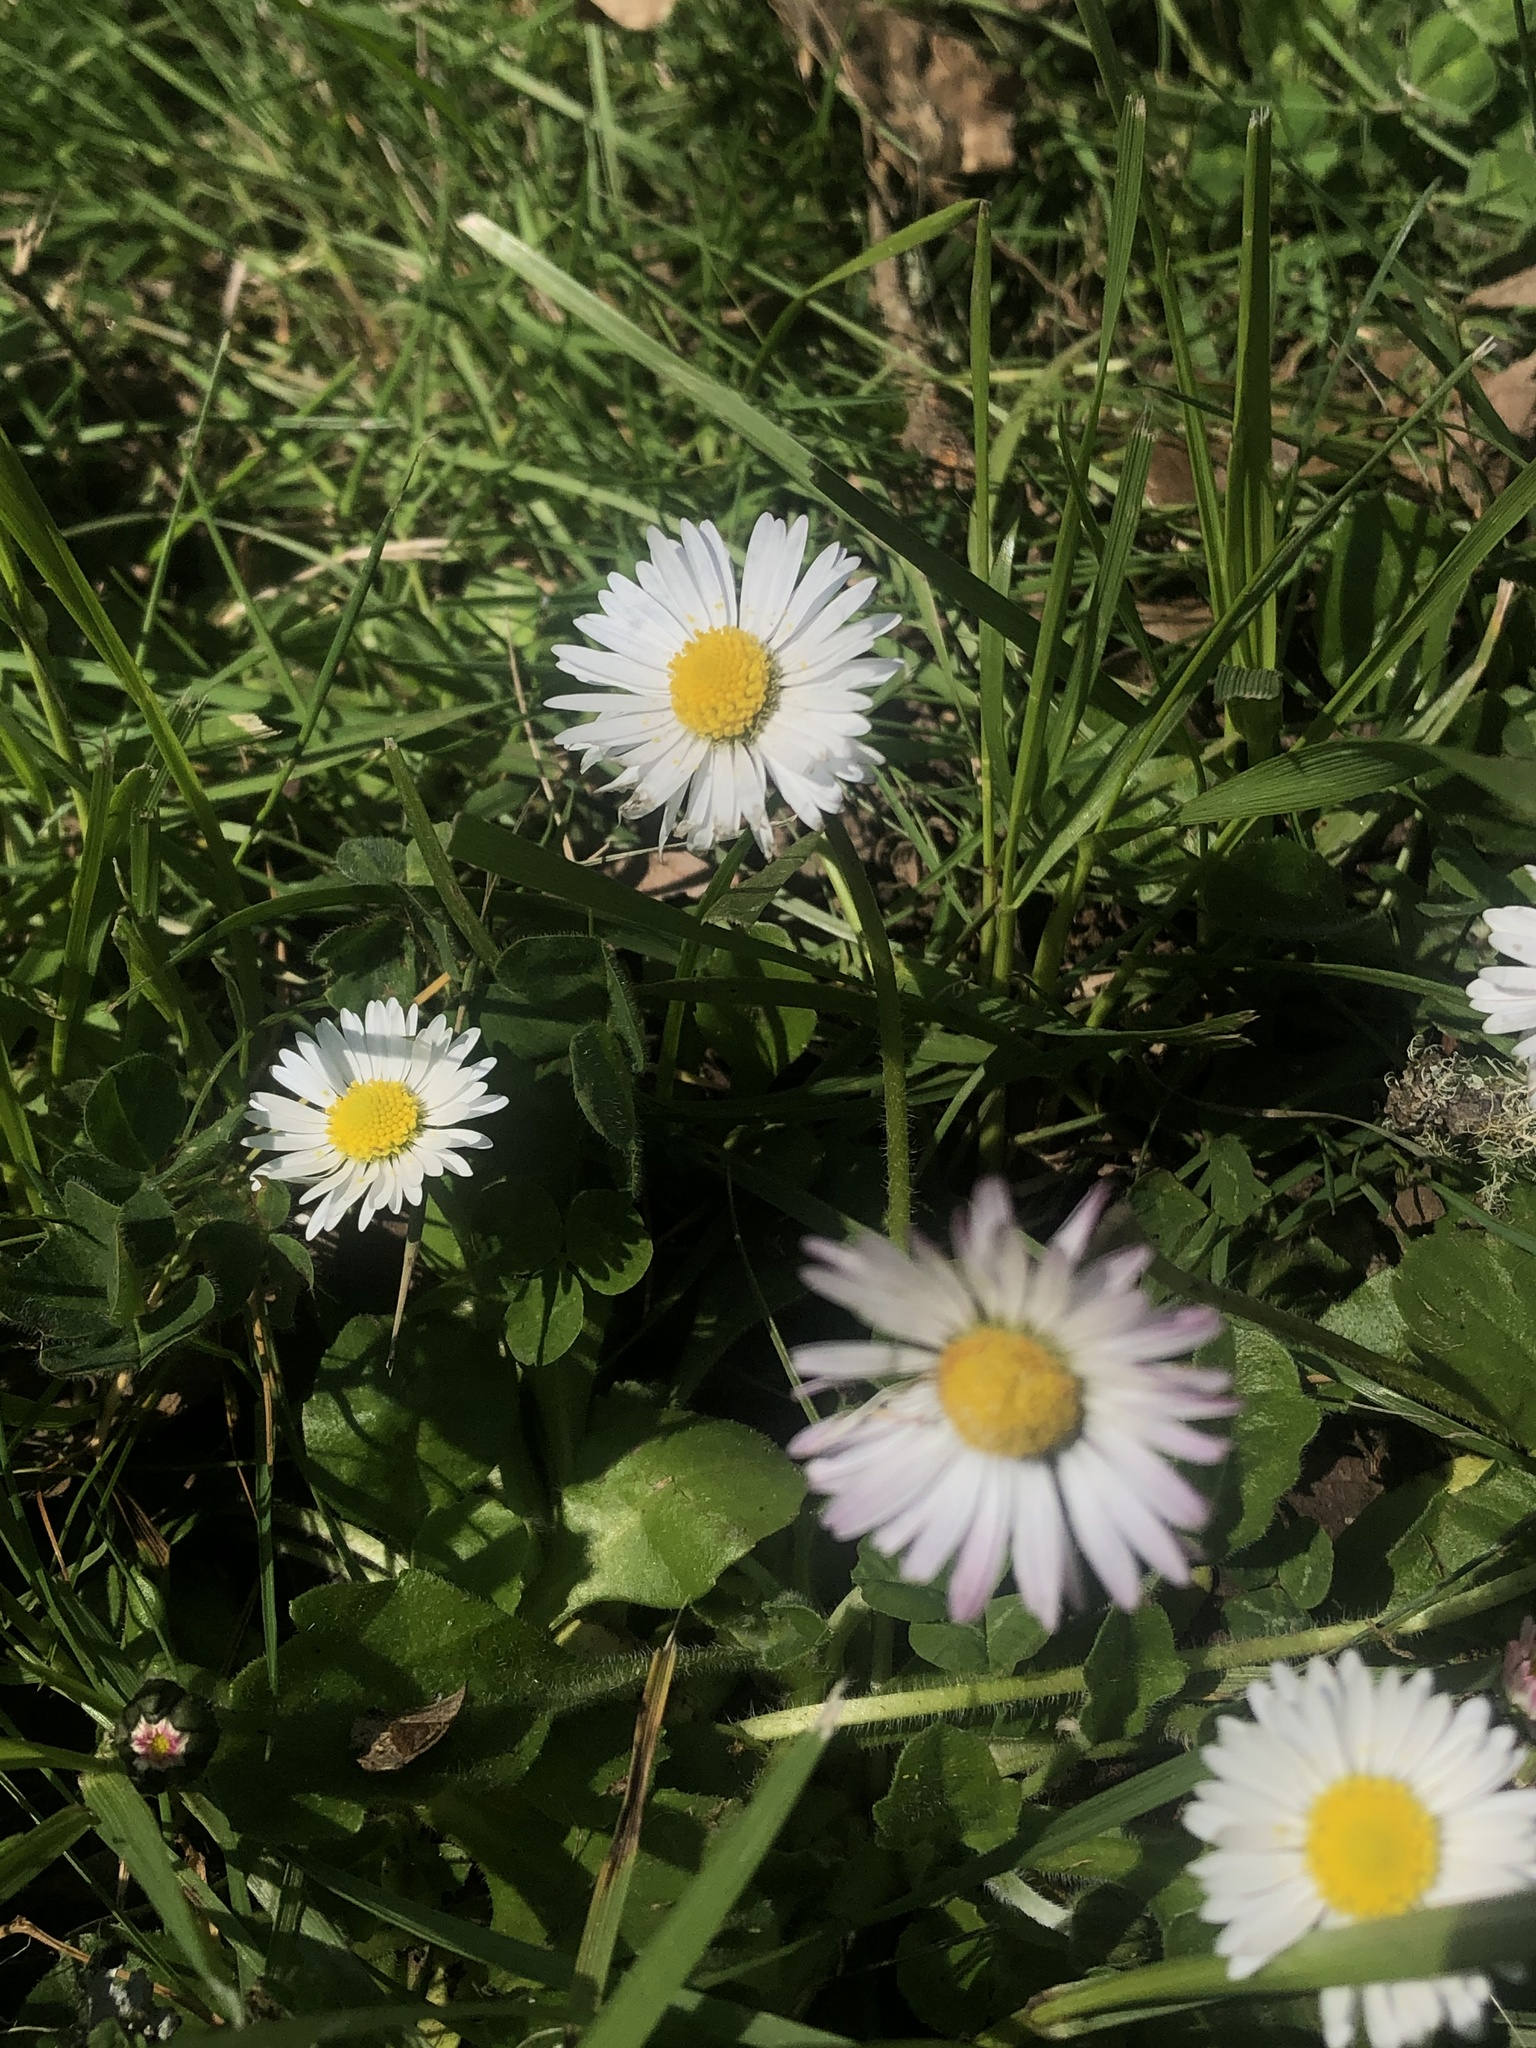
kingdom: Plantae
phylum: Tracheophyta
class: Magnoliopsida
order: Asterales
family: Asteraceae
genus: Bellis
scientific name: Bellis perennis
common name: Lawndaisy
